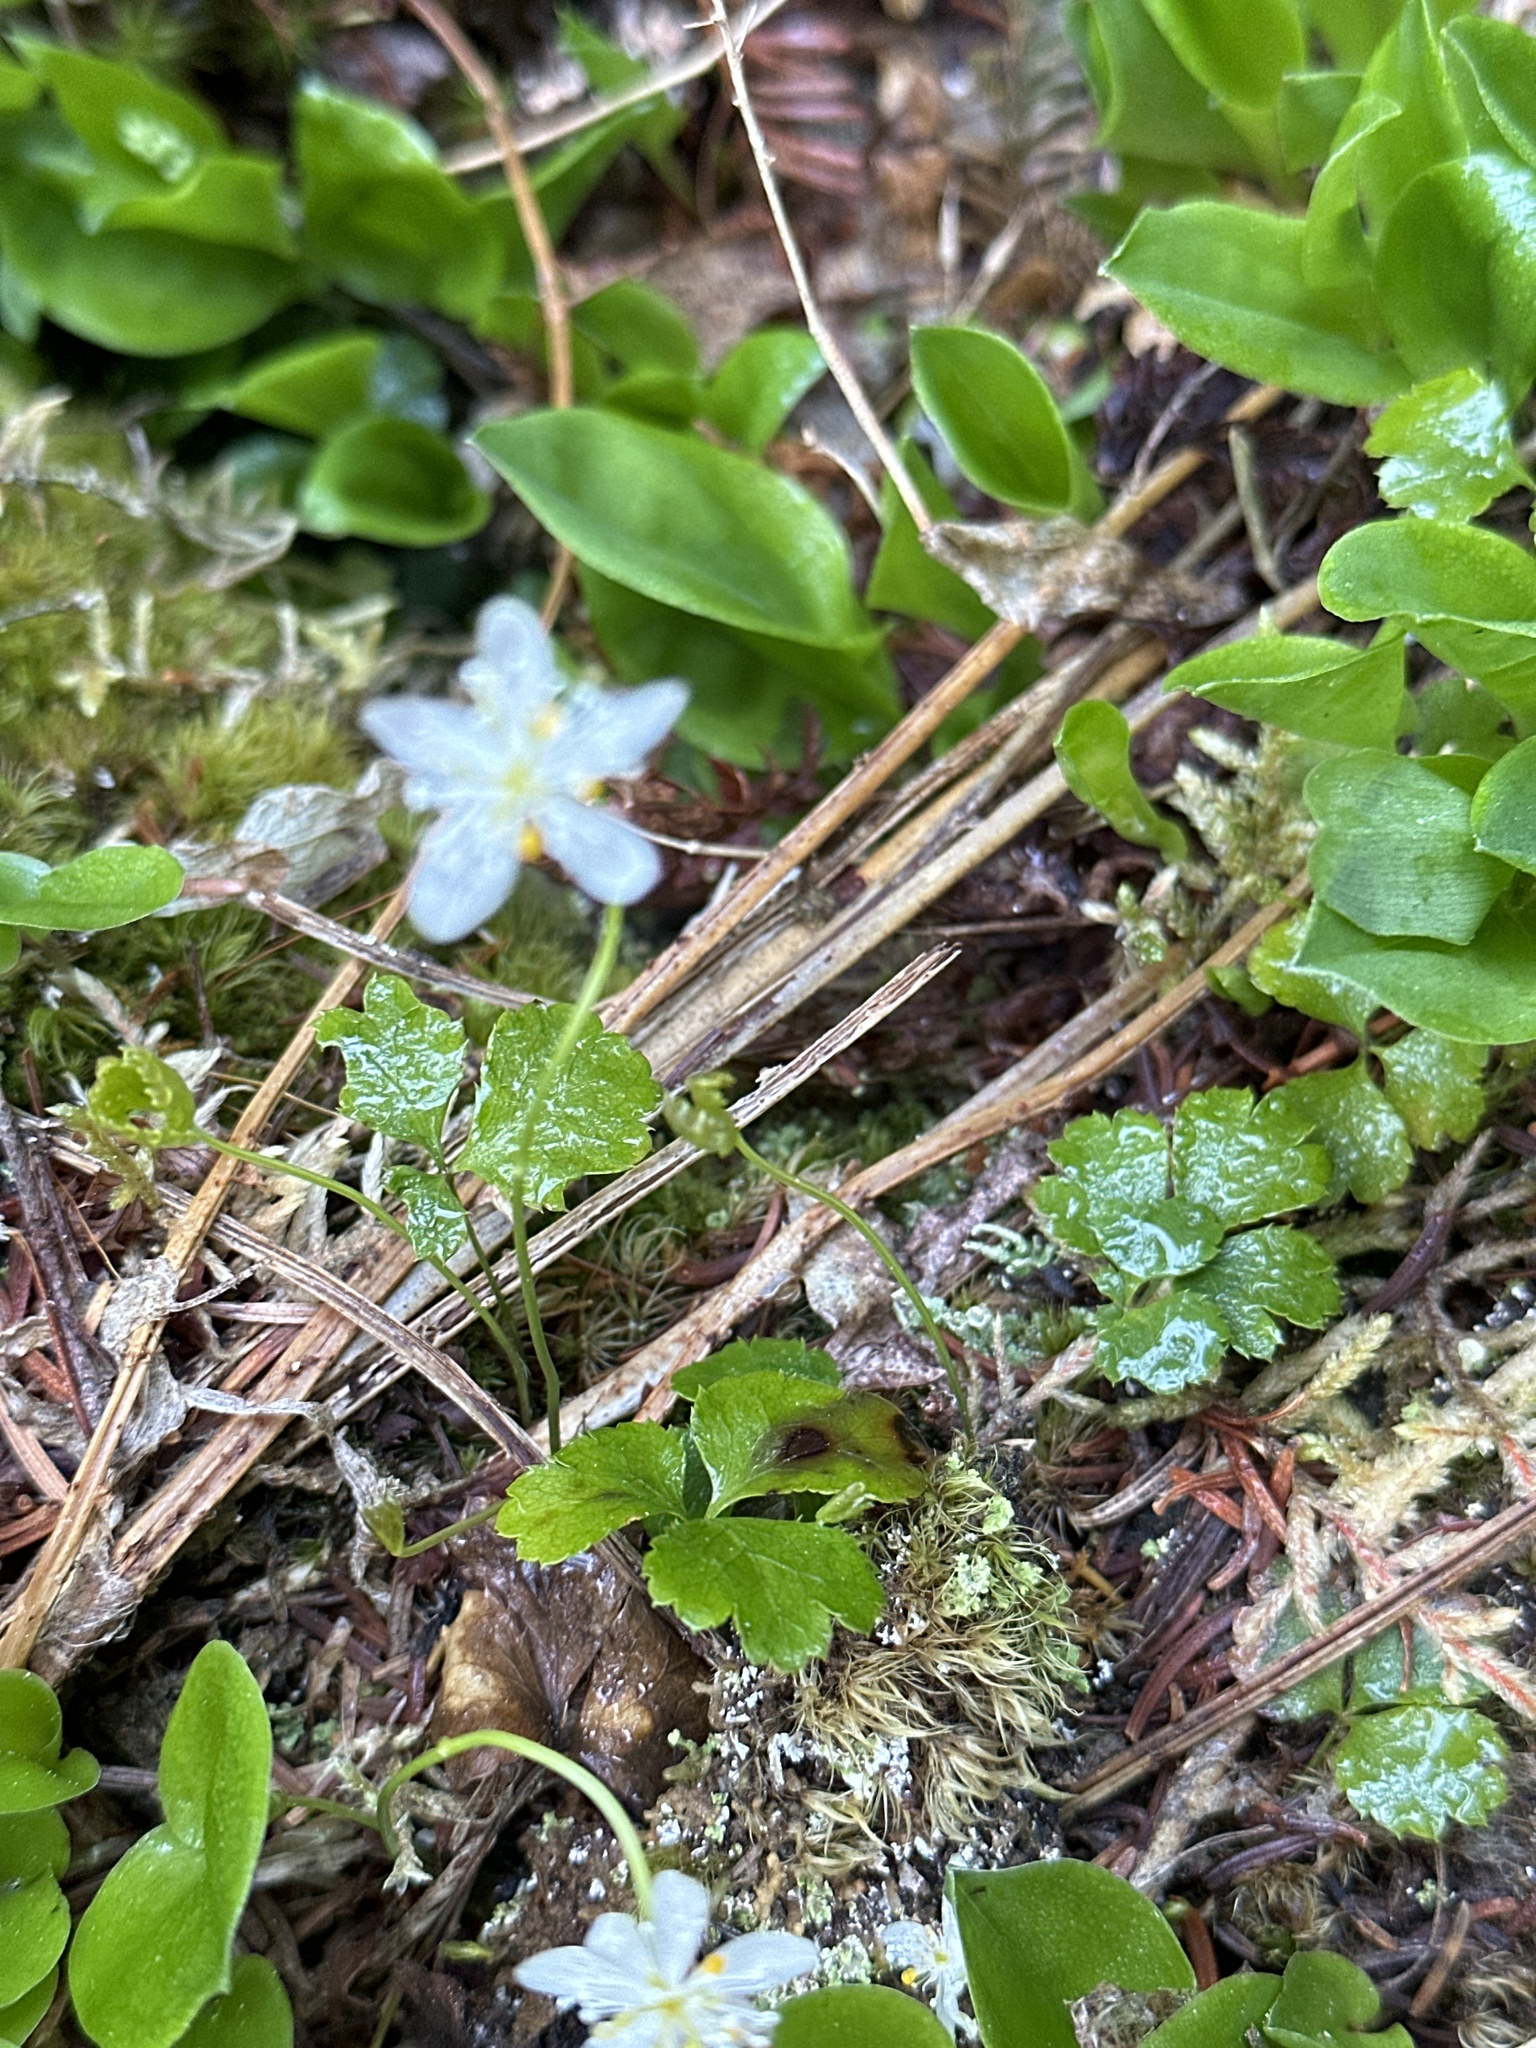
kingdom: Plantae
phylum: Tracheophyta
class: Magnoliopsida
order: Ranunculales
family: Ranunculaceae
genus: Coptis
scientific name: Coptis trifolia
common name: Canker-root
